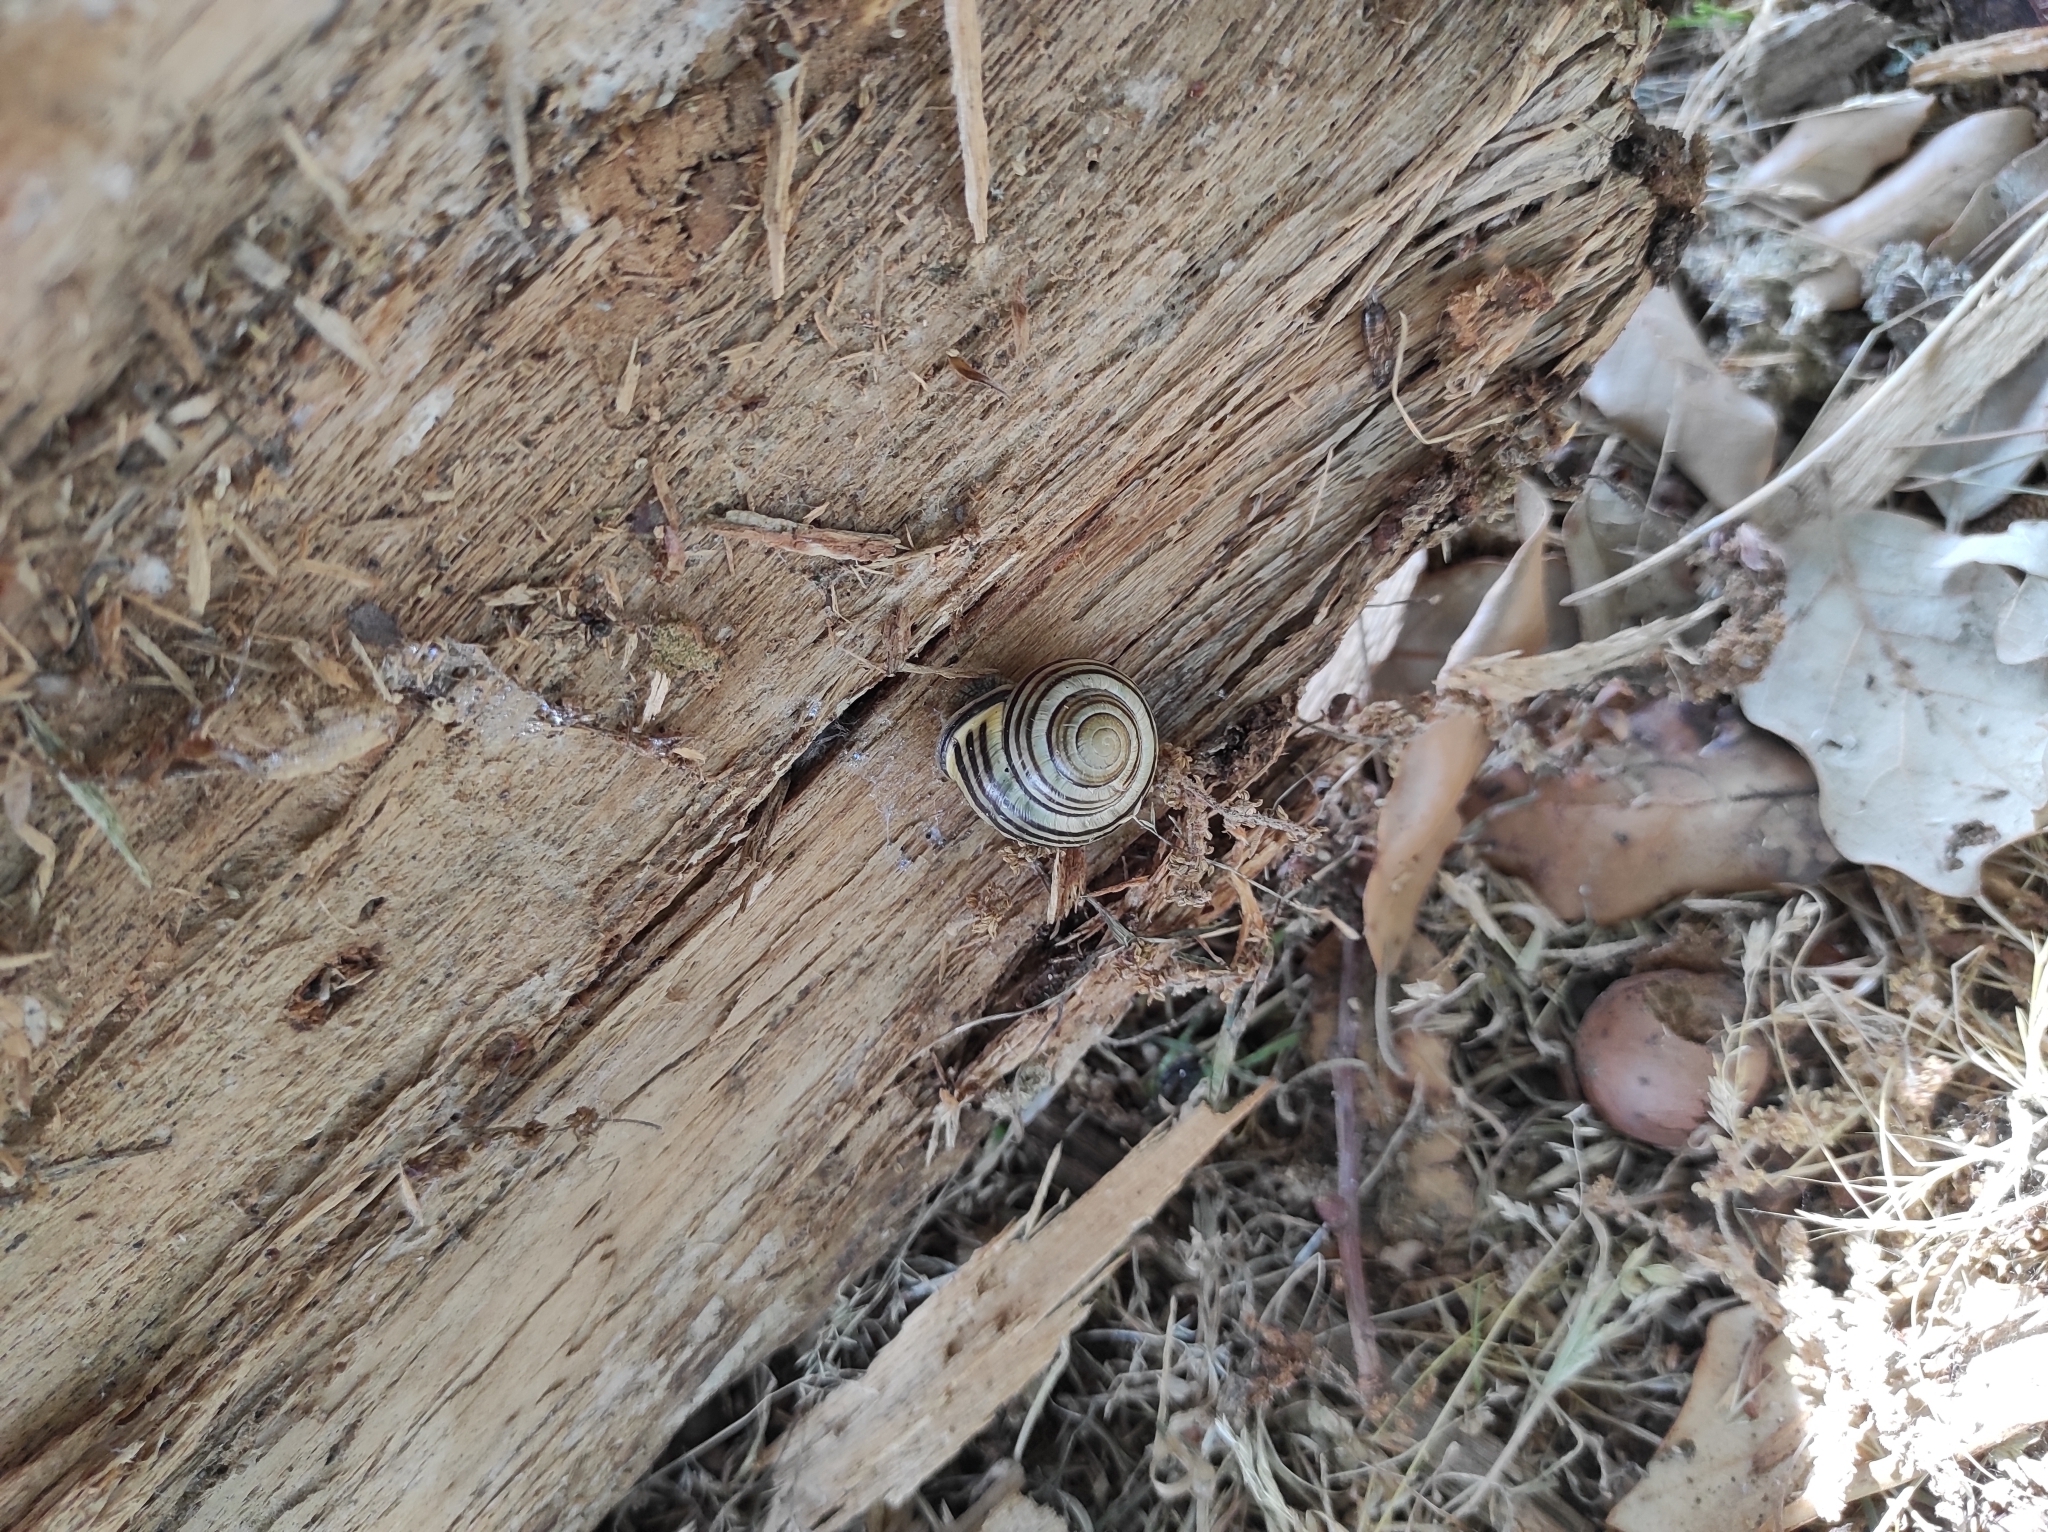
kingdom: Animalia
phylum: Mollusca
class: Gastropoda
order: Stylommatophora
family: Helicidae
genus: Cepaea
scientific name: Cepaea nemoralis
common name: Grovesnail
